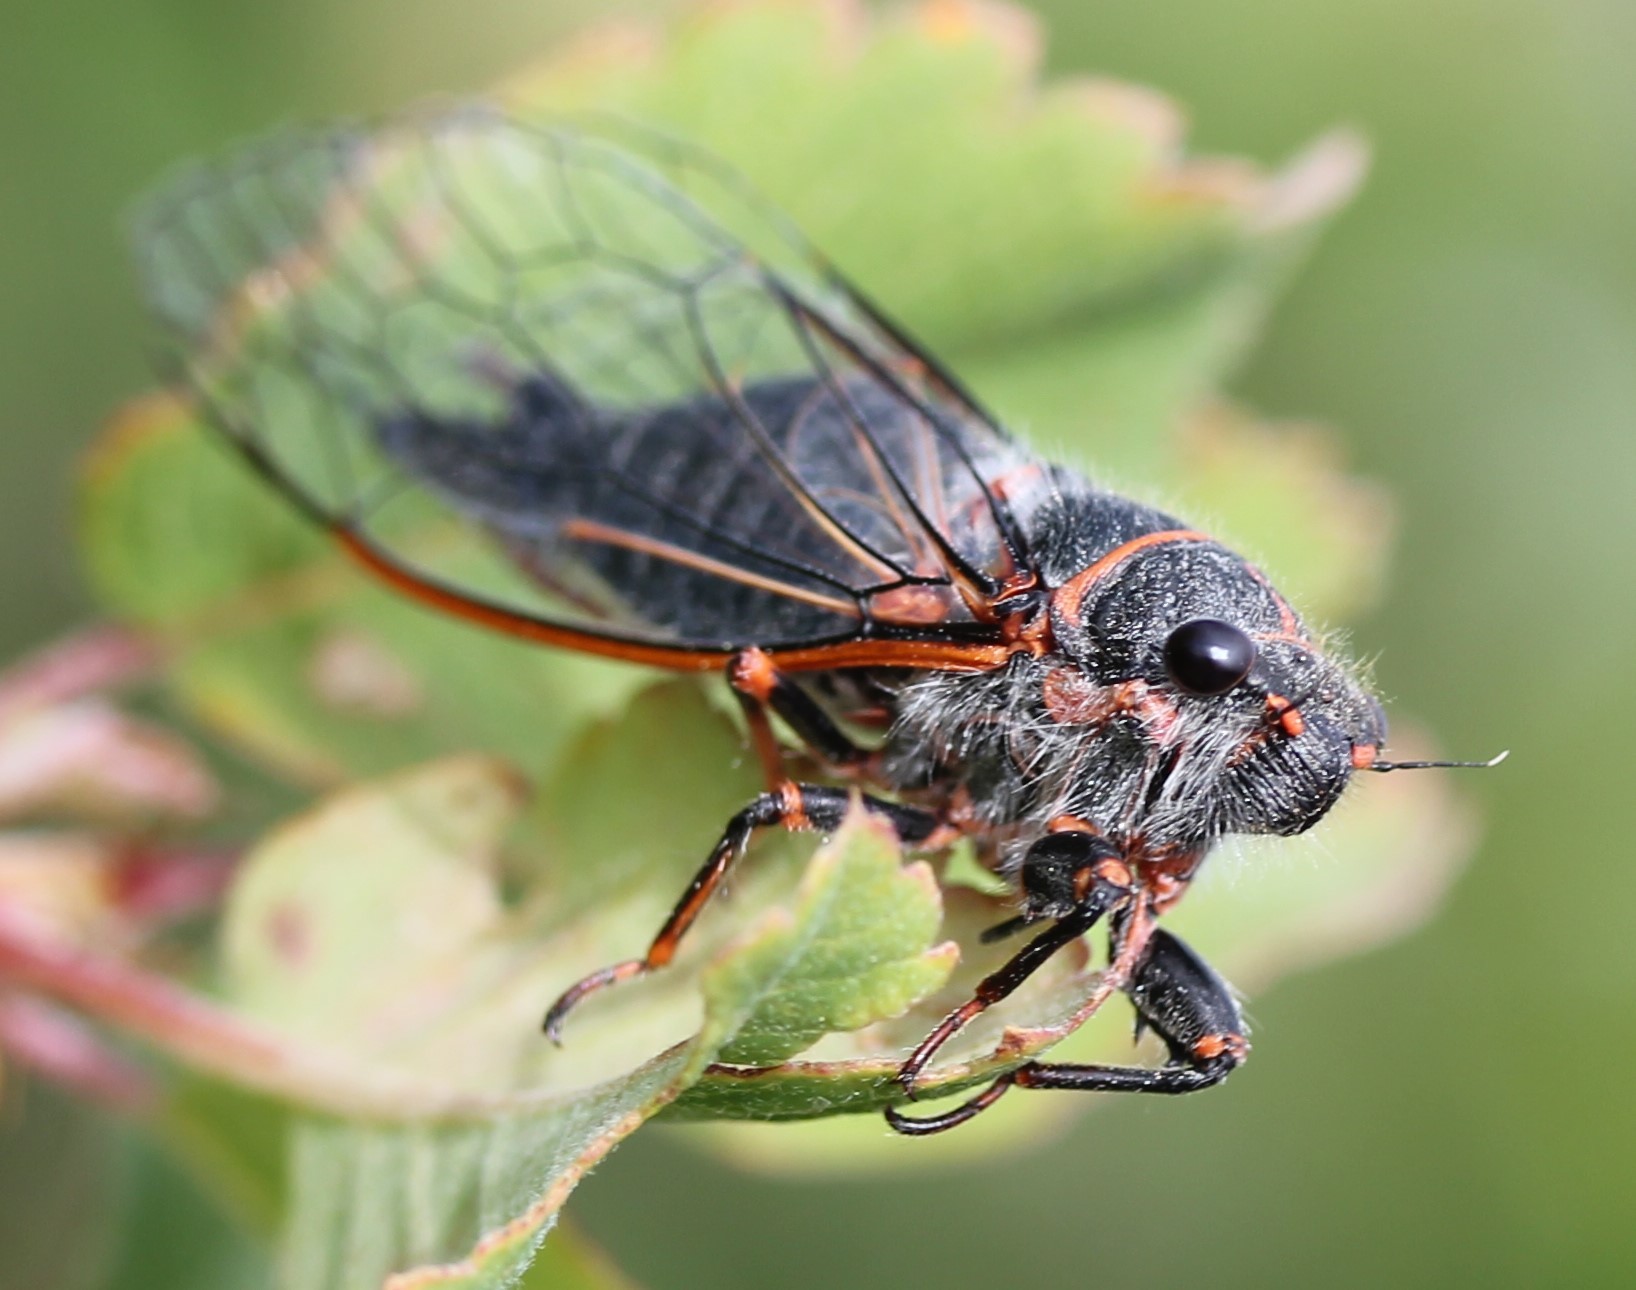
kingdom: Animalia
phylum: Arthropoda
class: Insecta
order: Hemiptera
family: Cicadidae
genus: Platypedia
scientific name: Platypedia putnami
